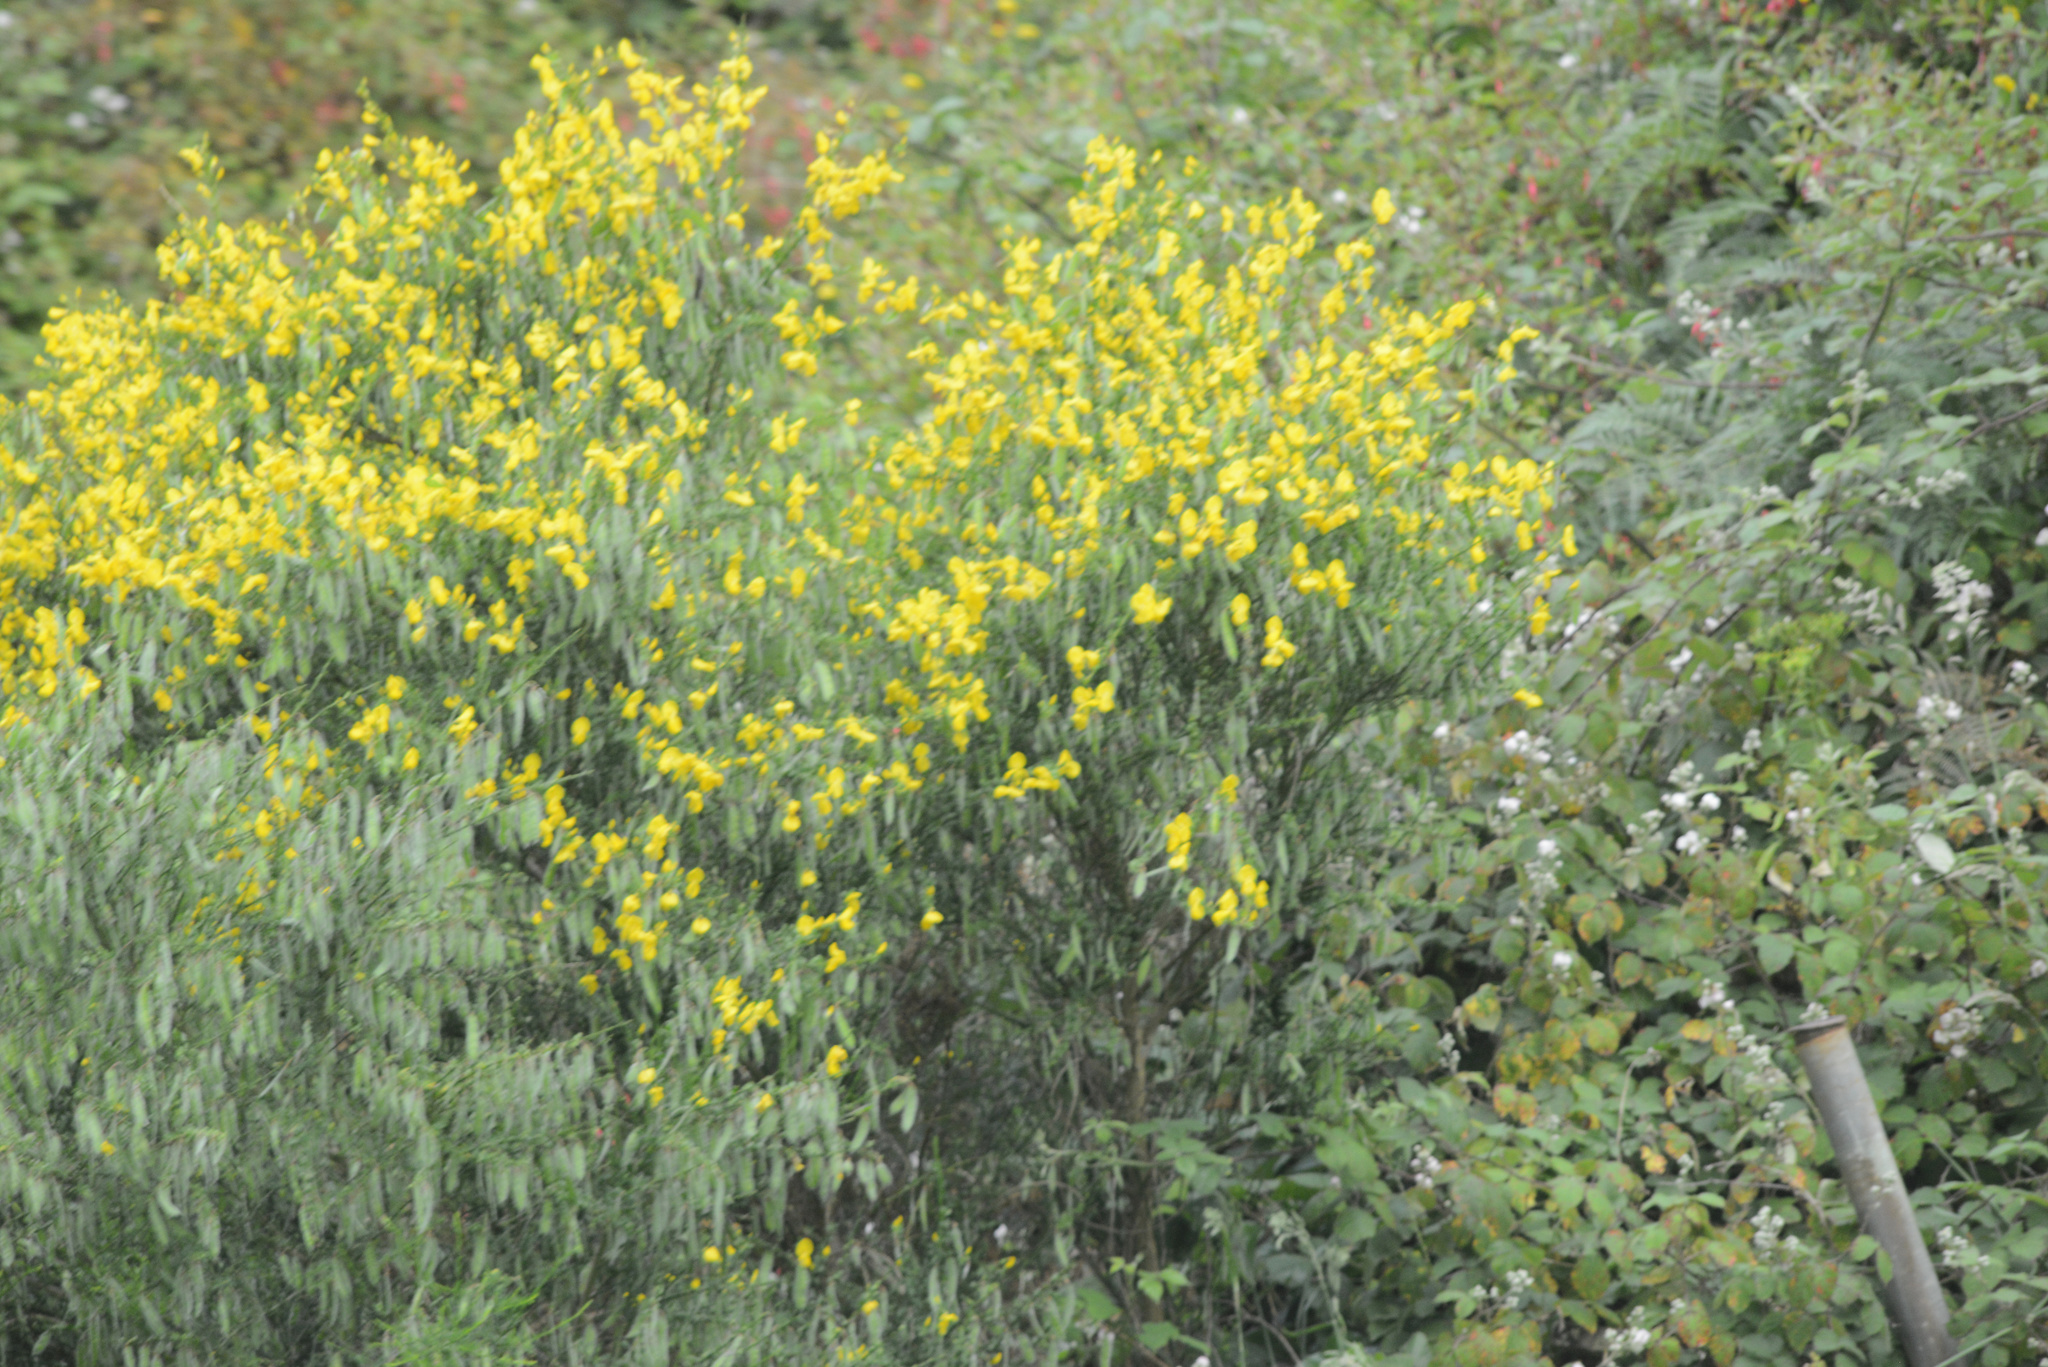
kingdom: Plantae
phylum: Tracheophyta
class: Magnoliopsida
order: Fabales
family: Fabaceae
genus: Cytisus
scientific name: Cytisus scoparius
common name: Scotch broom
